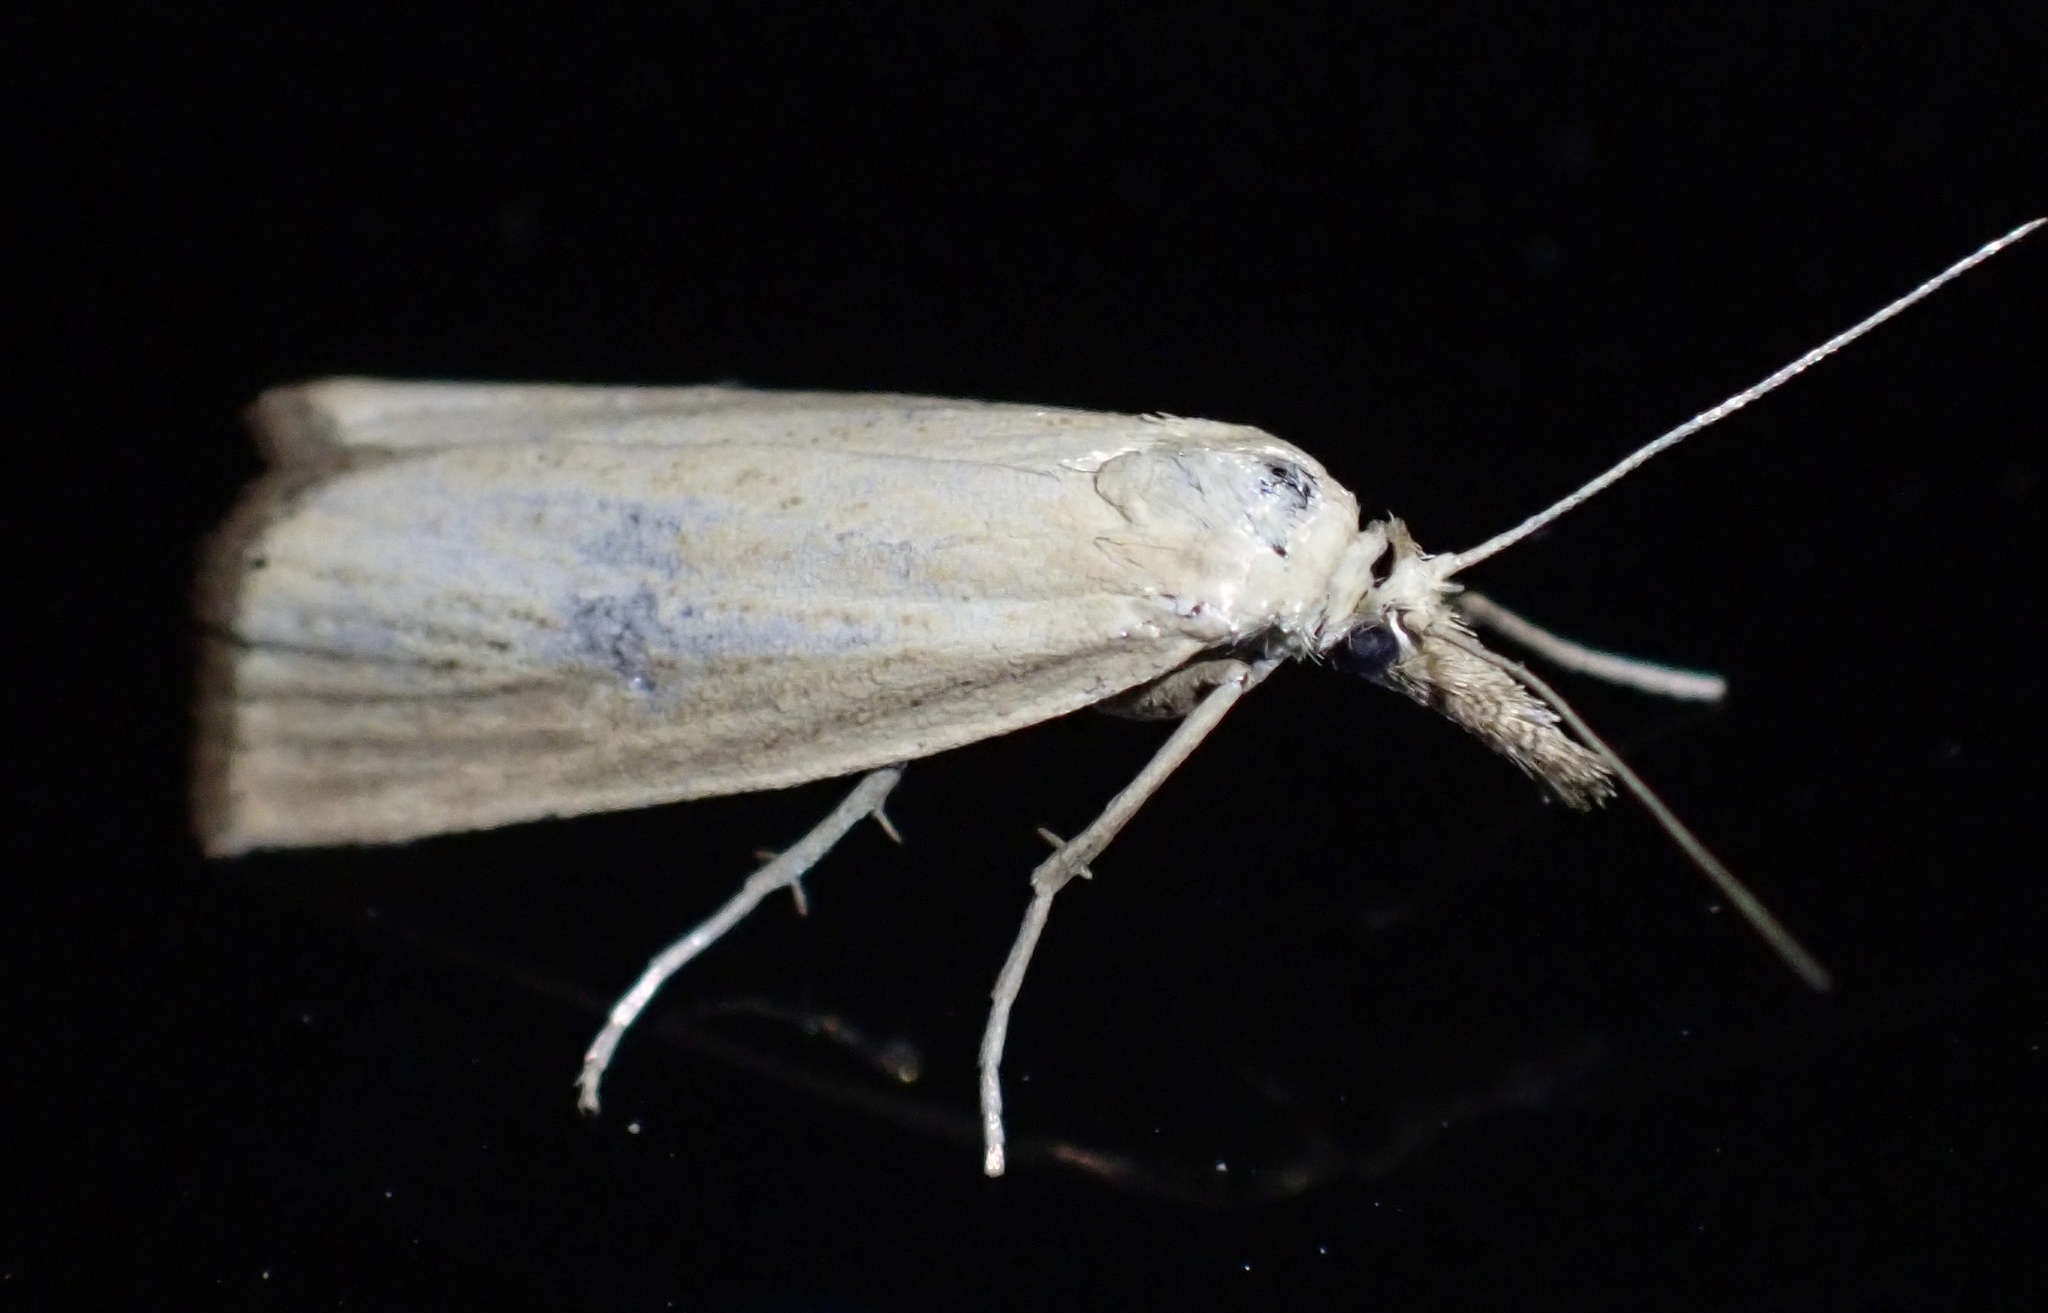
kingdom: Animalia
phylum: Arthropoda
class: Insecta
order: Lepidoptera
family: Crambidae
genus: Agriphila
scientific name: Agriphila straminella
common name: Straw grass-veneer
